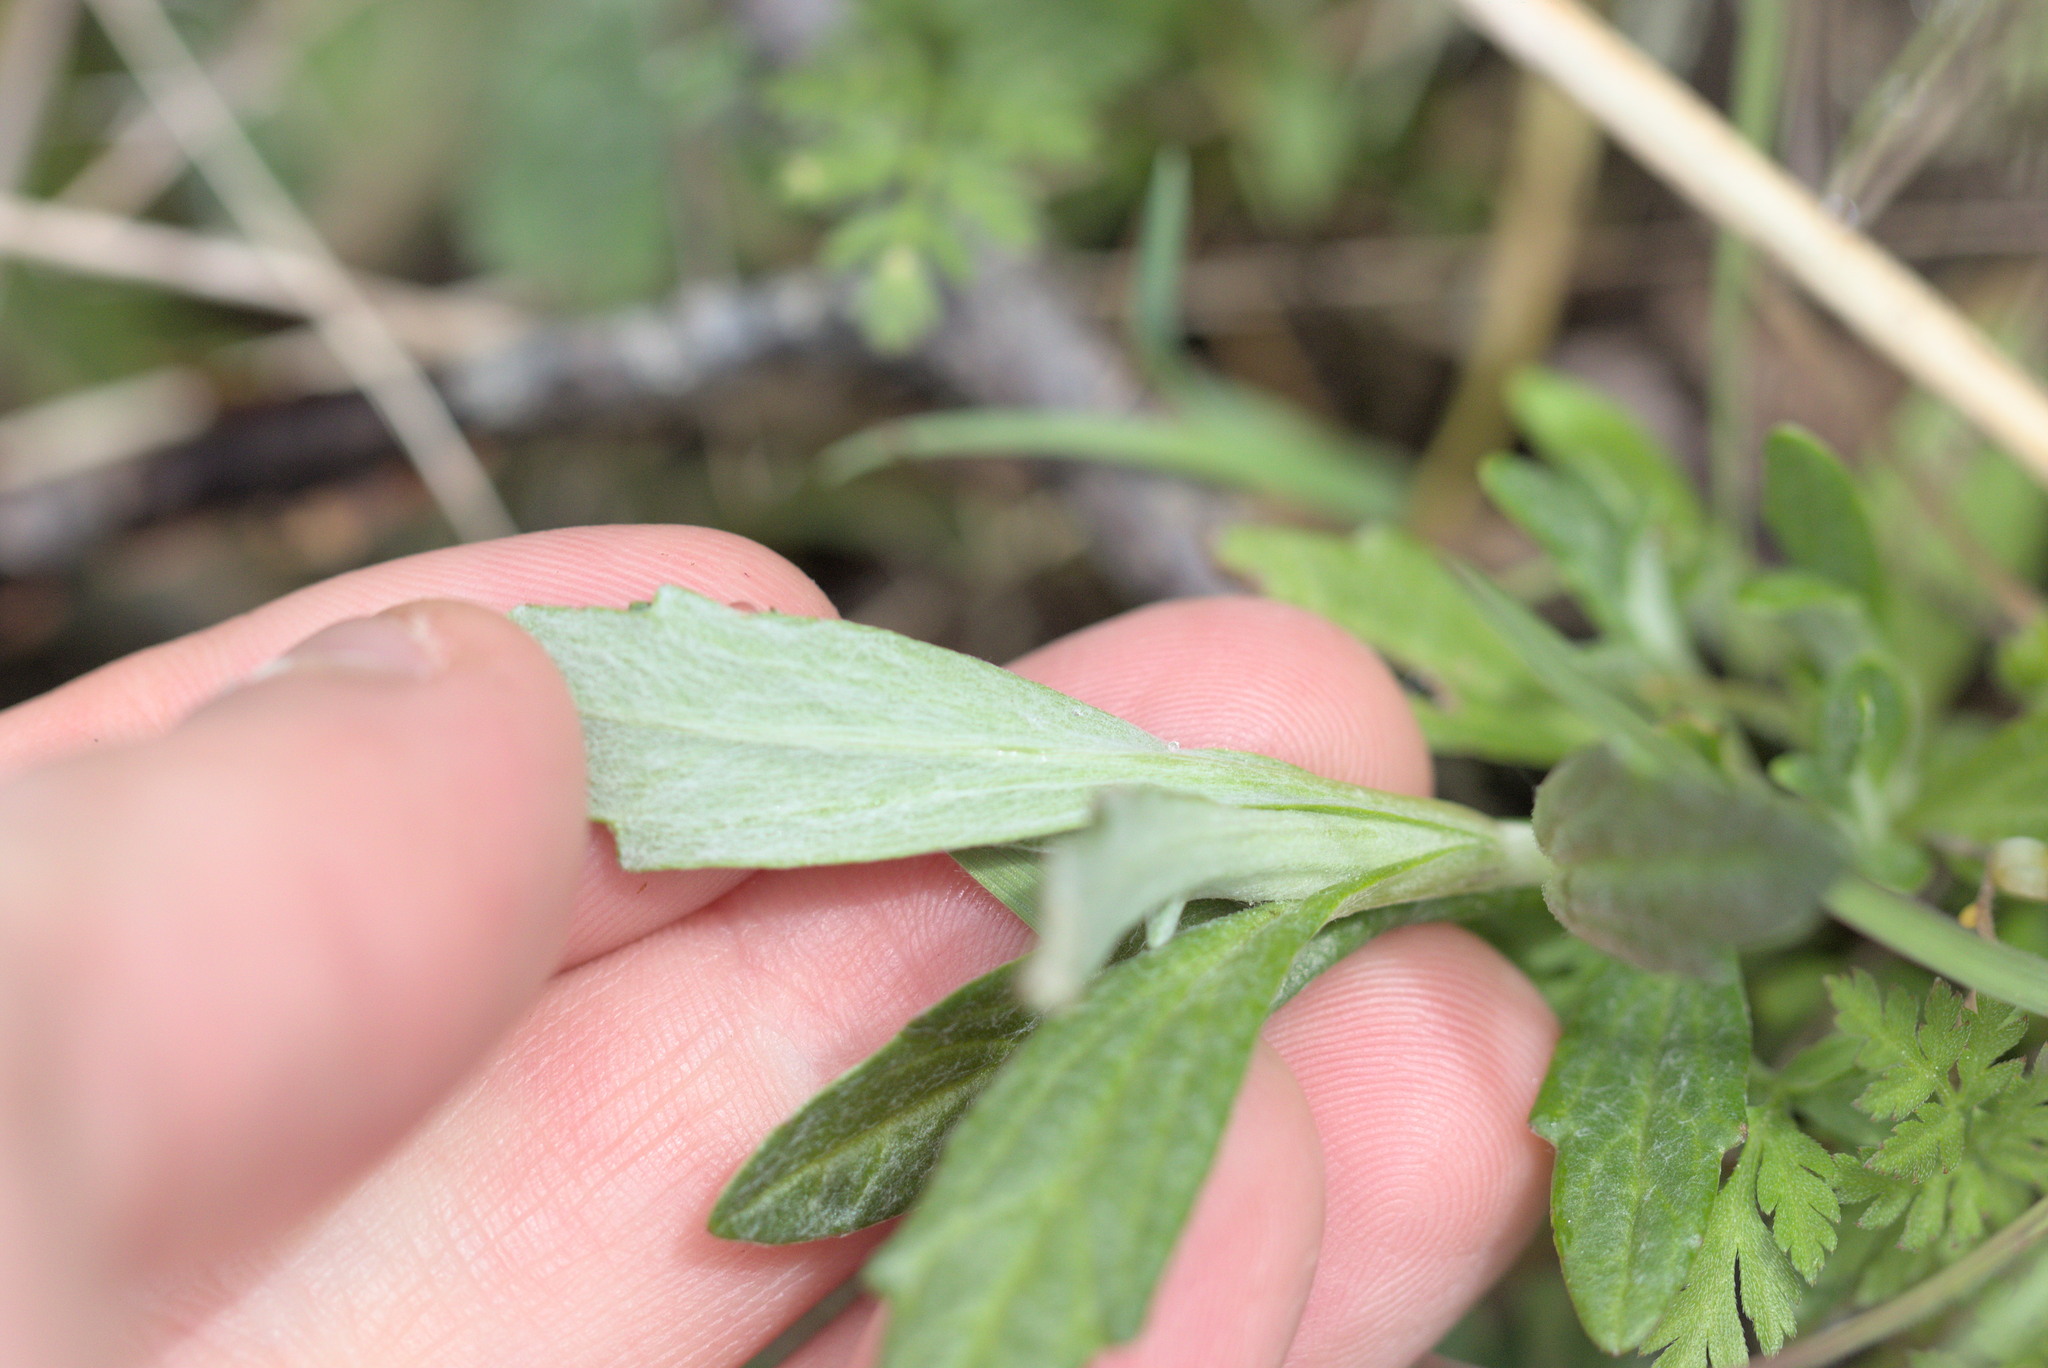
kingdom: Plantae
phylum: Tracheophyta
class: Magnoliopsida
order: Asterales
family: Asteraceae
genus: Eriophyllum
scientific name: Eriophyllum lanatum
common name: Common woolly-sunflower
